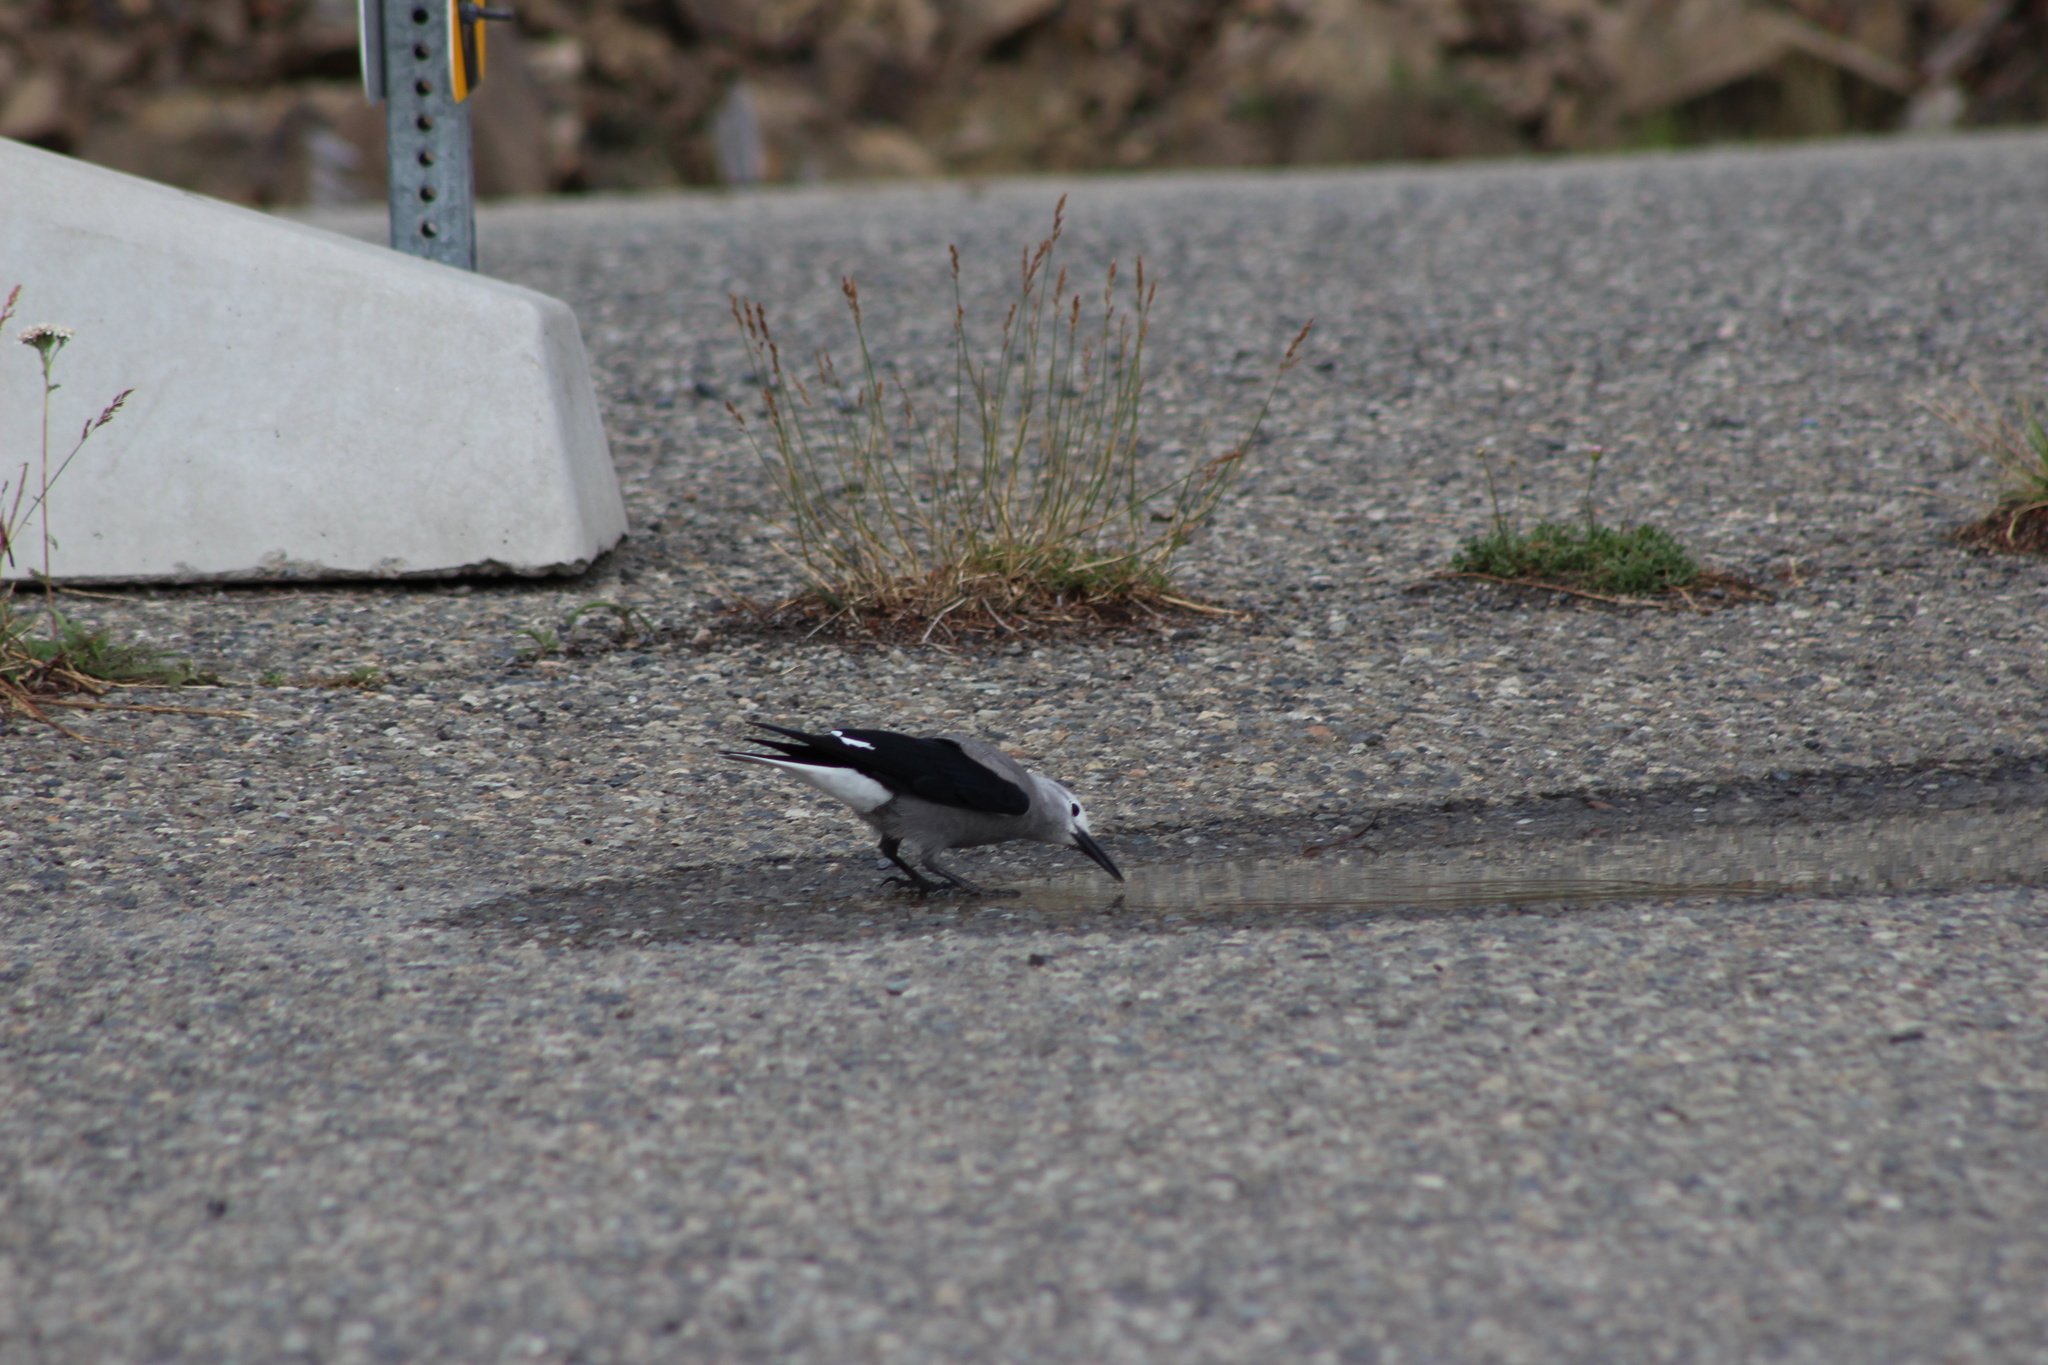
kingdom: Animalia
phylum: Chordata
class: Aves
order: Passeriformes
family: Corvidae
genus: Nucifraga
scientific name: Nucifraga columbiana
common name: Clark's nutcracker
